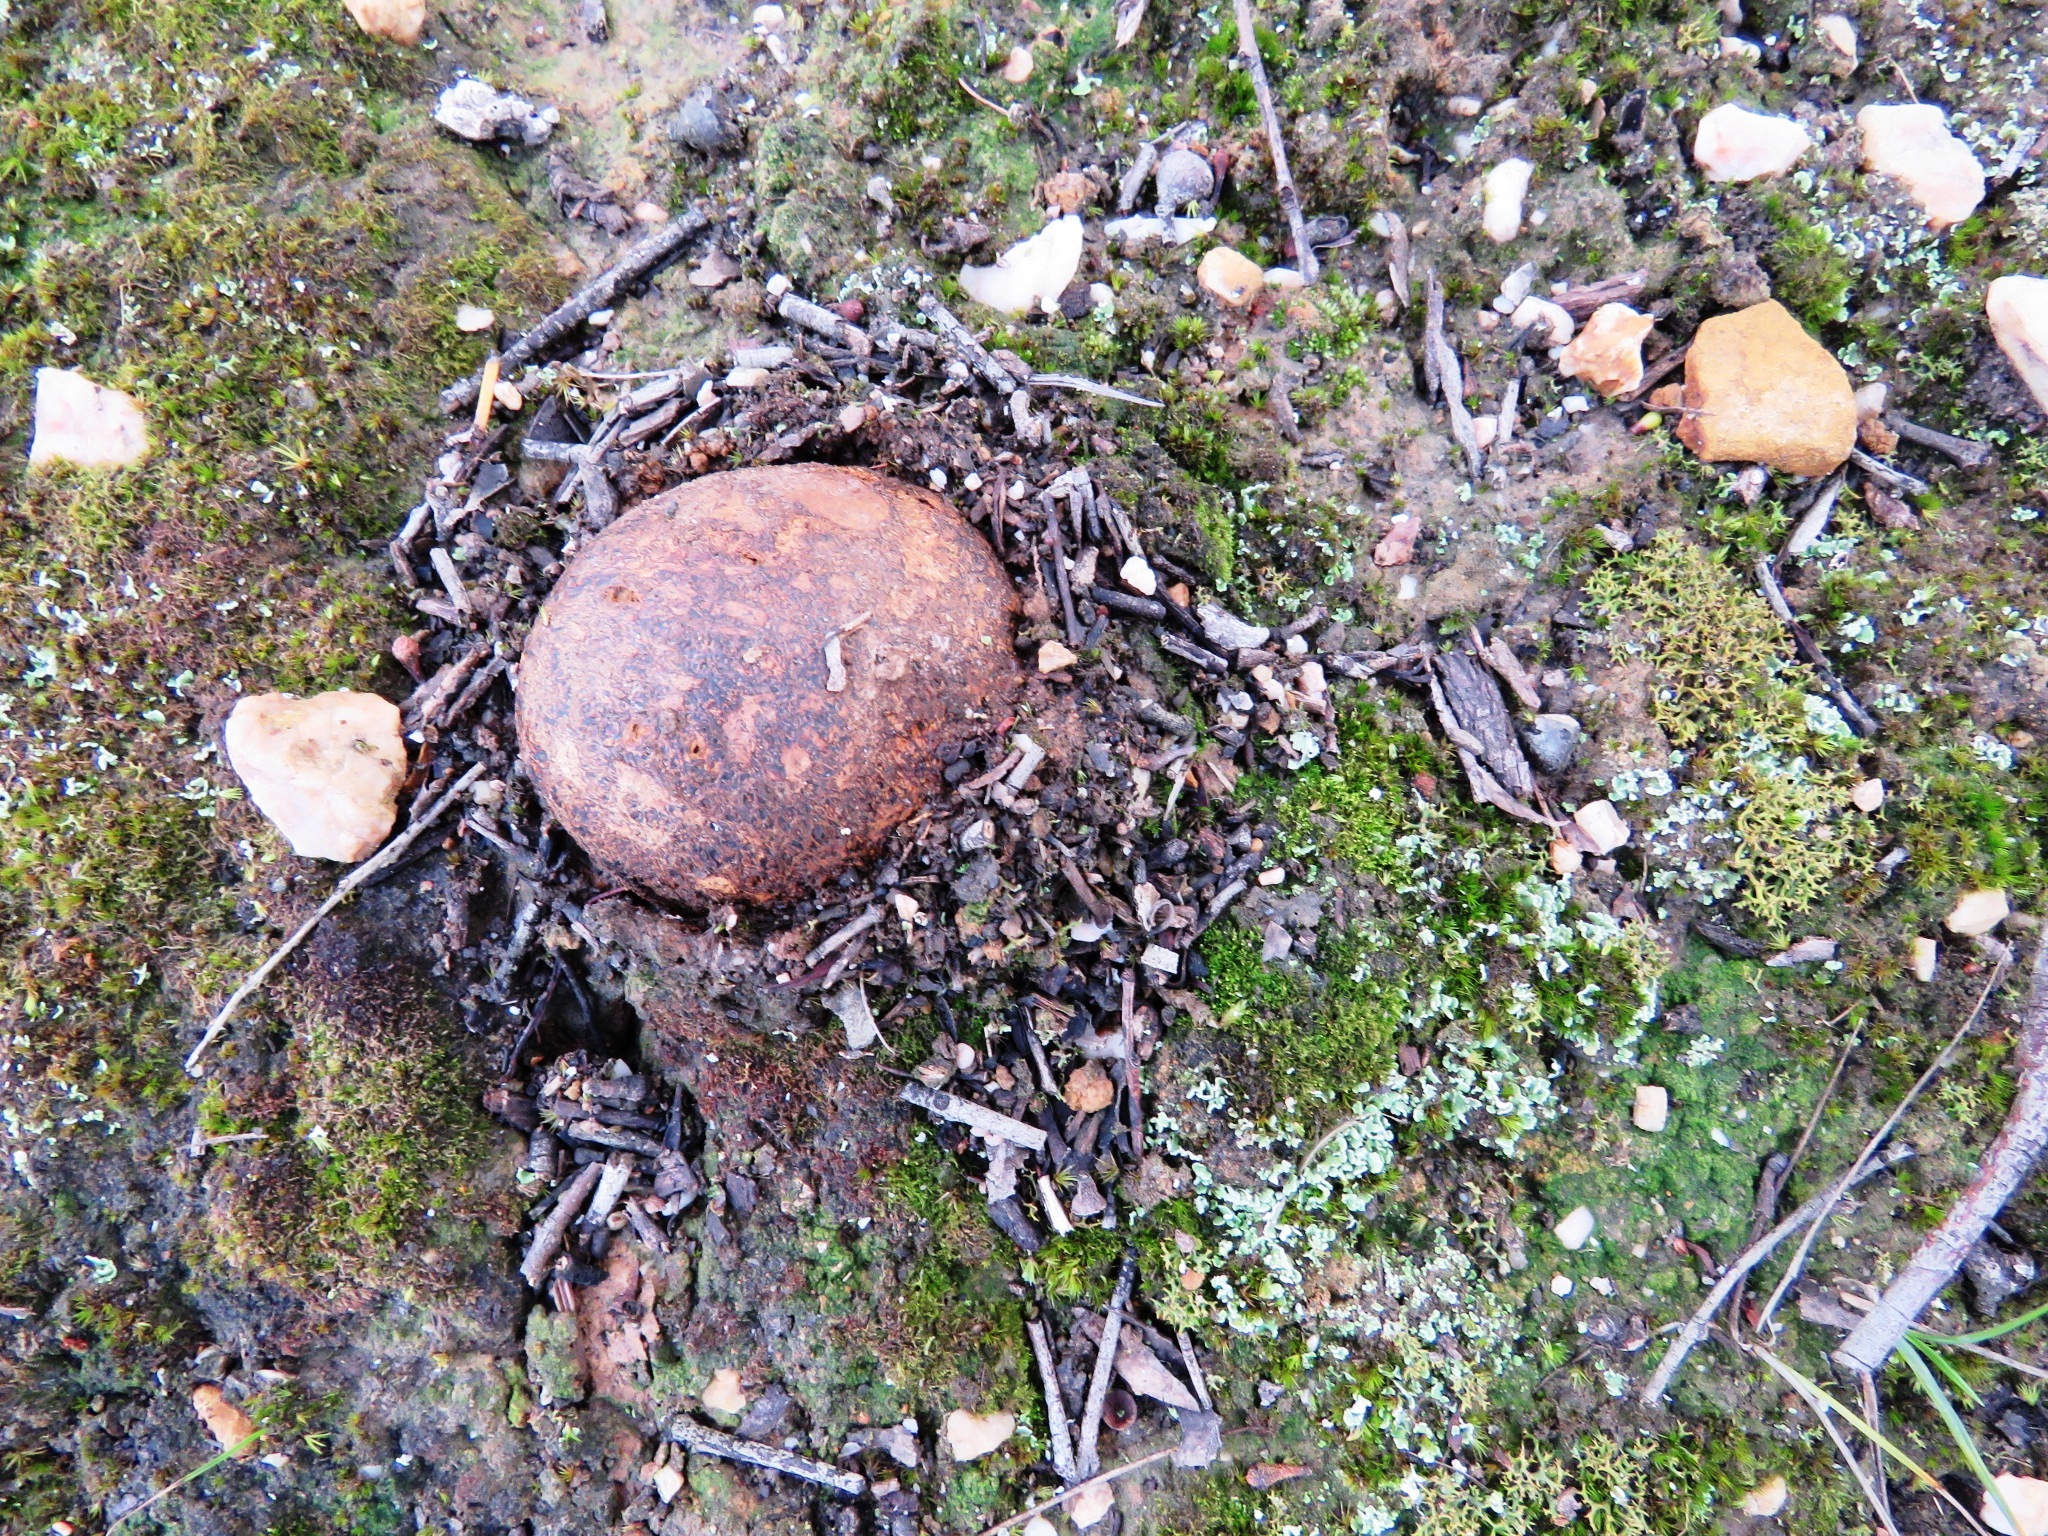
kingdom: Fungi
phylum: Basidiomycota
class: Agaricomycetes
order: Boletales
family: Sclerodermataceae
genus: Pisolithus
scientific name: Pisolithus arhizus
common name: Dyeball
